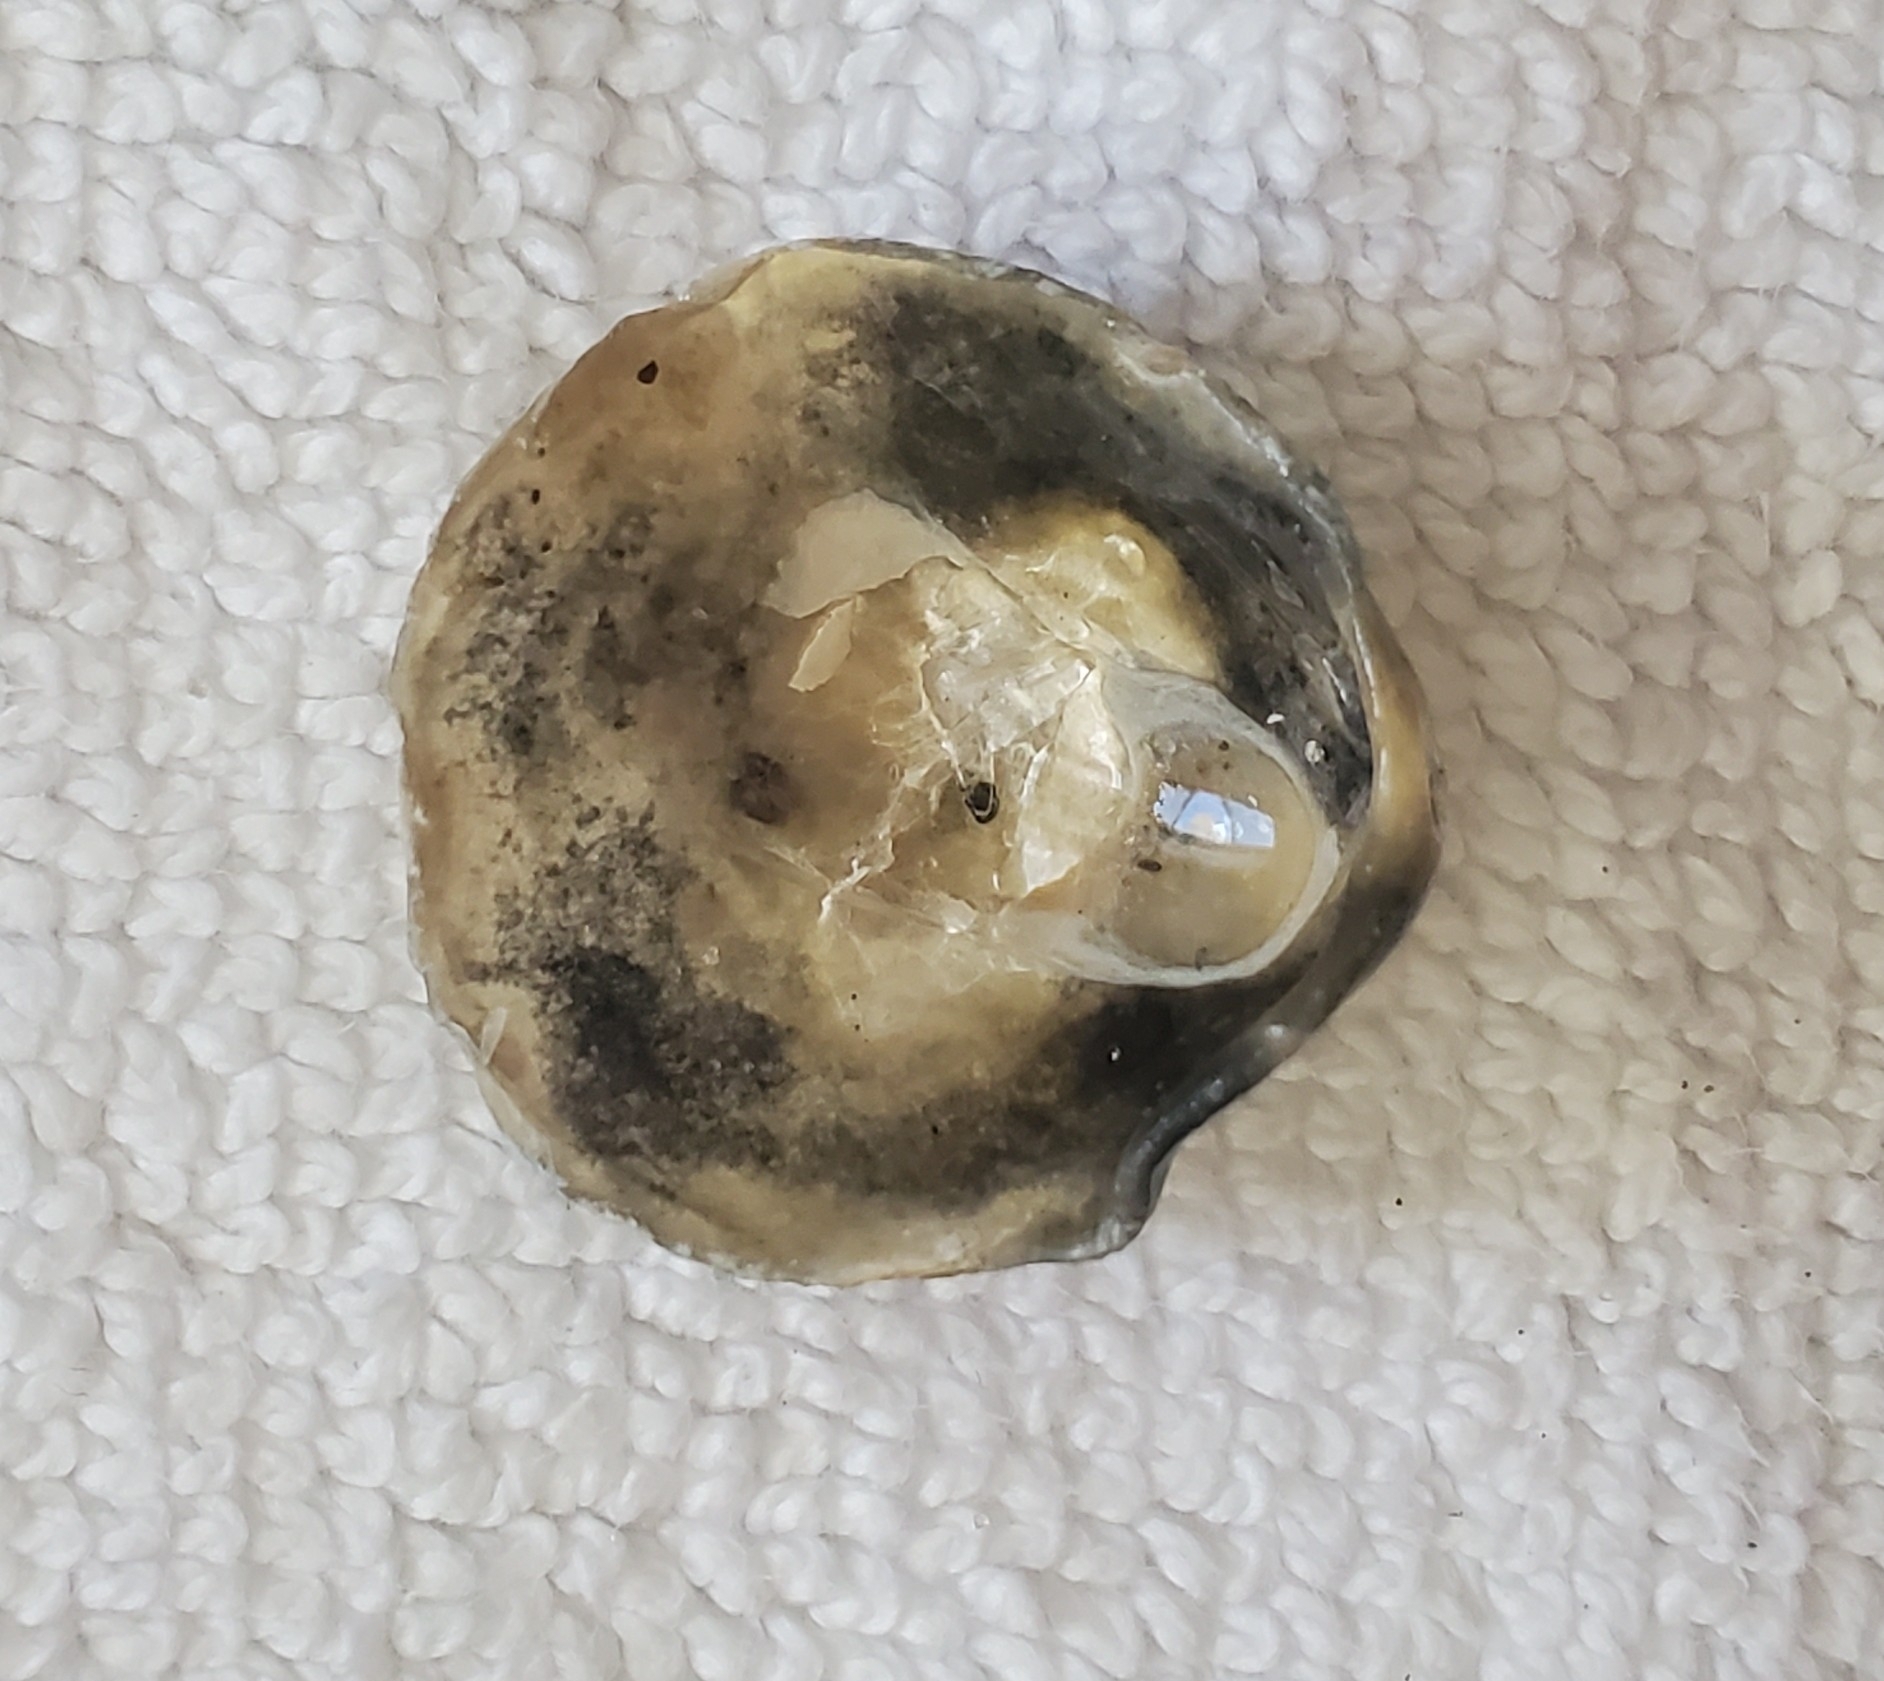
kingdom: Animalia
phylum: Mollusca
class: Bivalvia
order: Pectinida
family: Anomiidae
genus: Anomia
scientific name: Anomia simplex
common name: Common jingle shell
